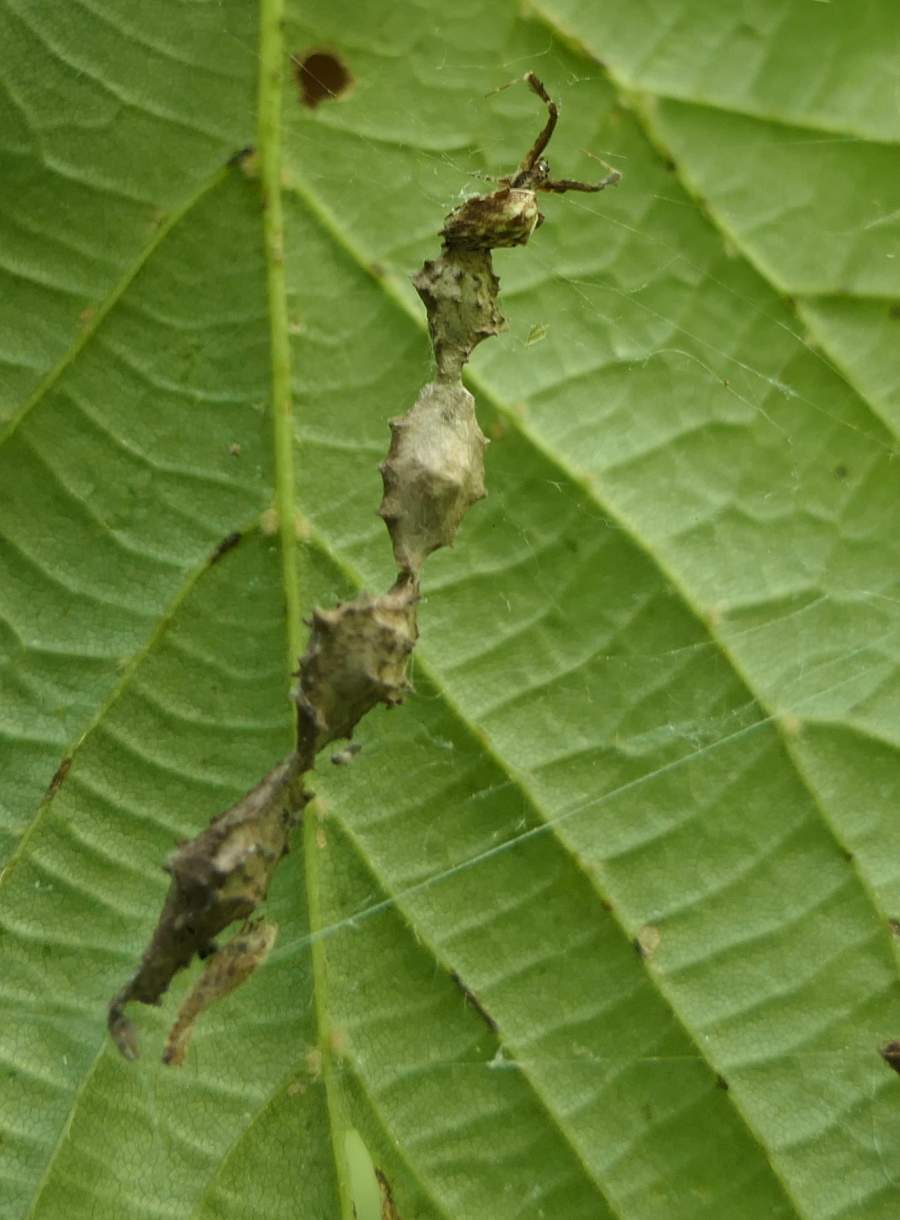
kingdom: Animalia
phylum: Arthropoda
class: Arachnida
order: Araneae
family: Uloboridae
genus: Uloborus
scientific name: Uloborus glomosus
